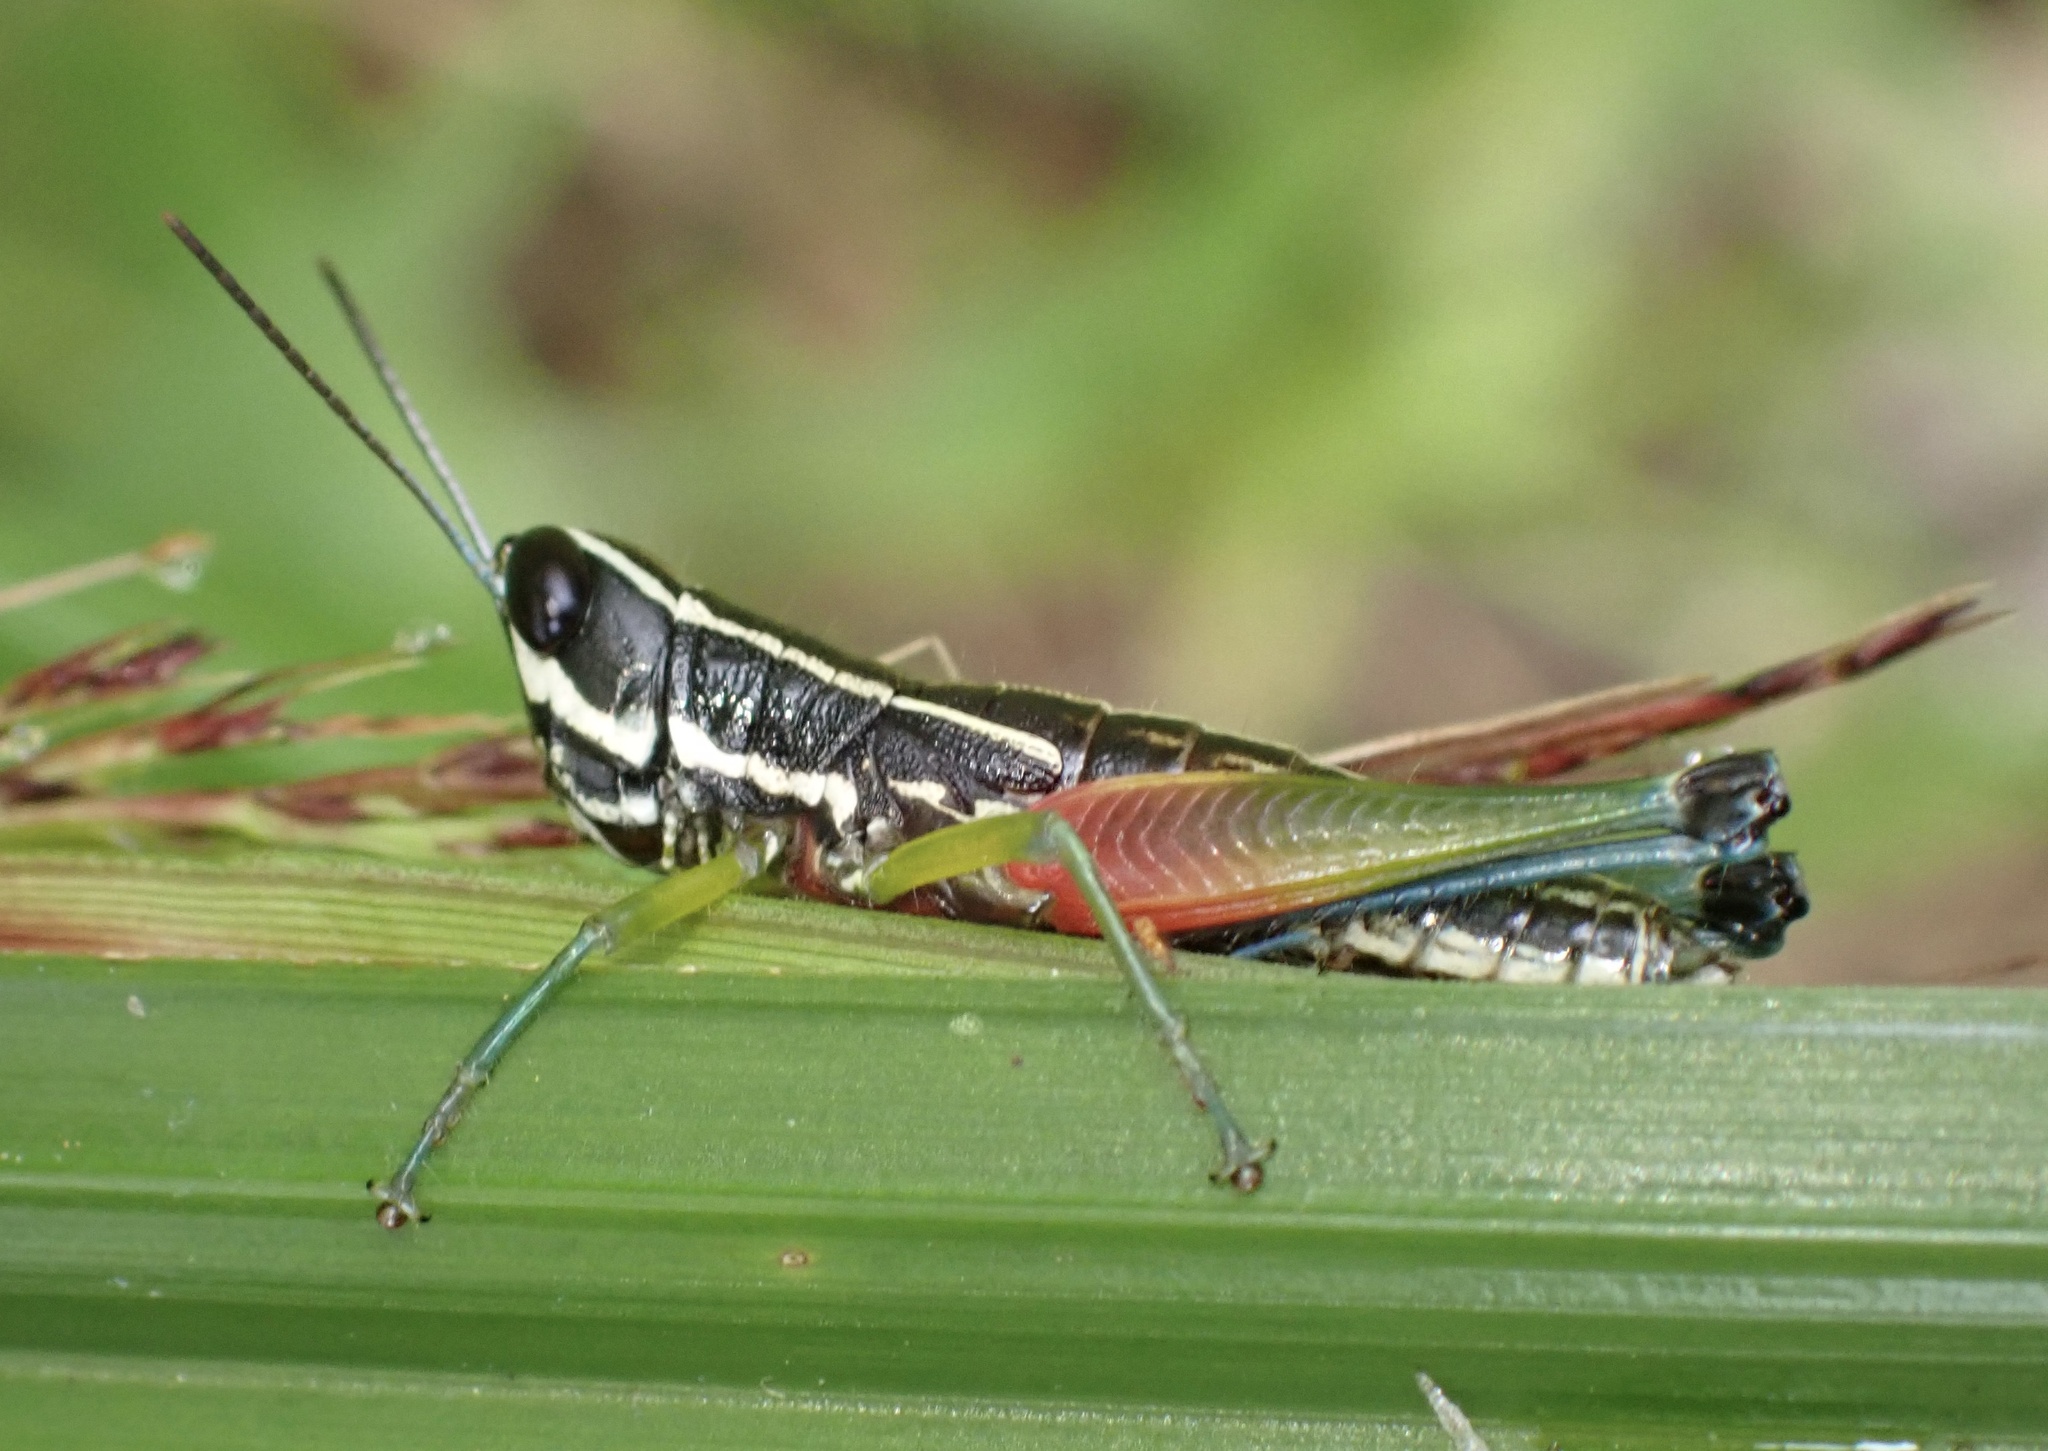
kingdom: Animalia
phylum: Arthropoda
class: Insecta
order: Orthoptera
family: Acrididae
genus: Chitaura
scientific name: Chitaura ochracea
